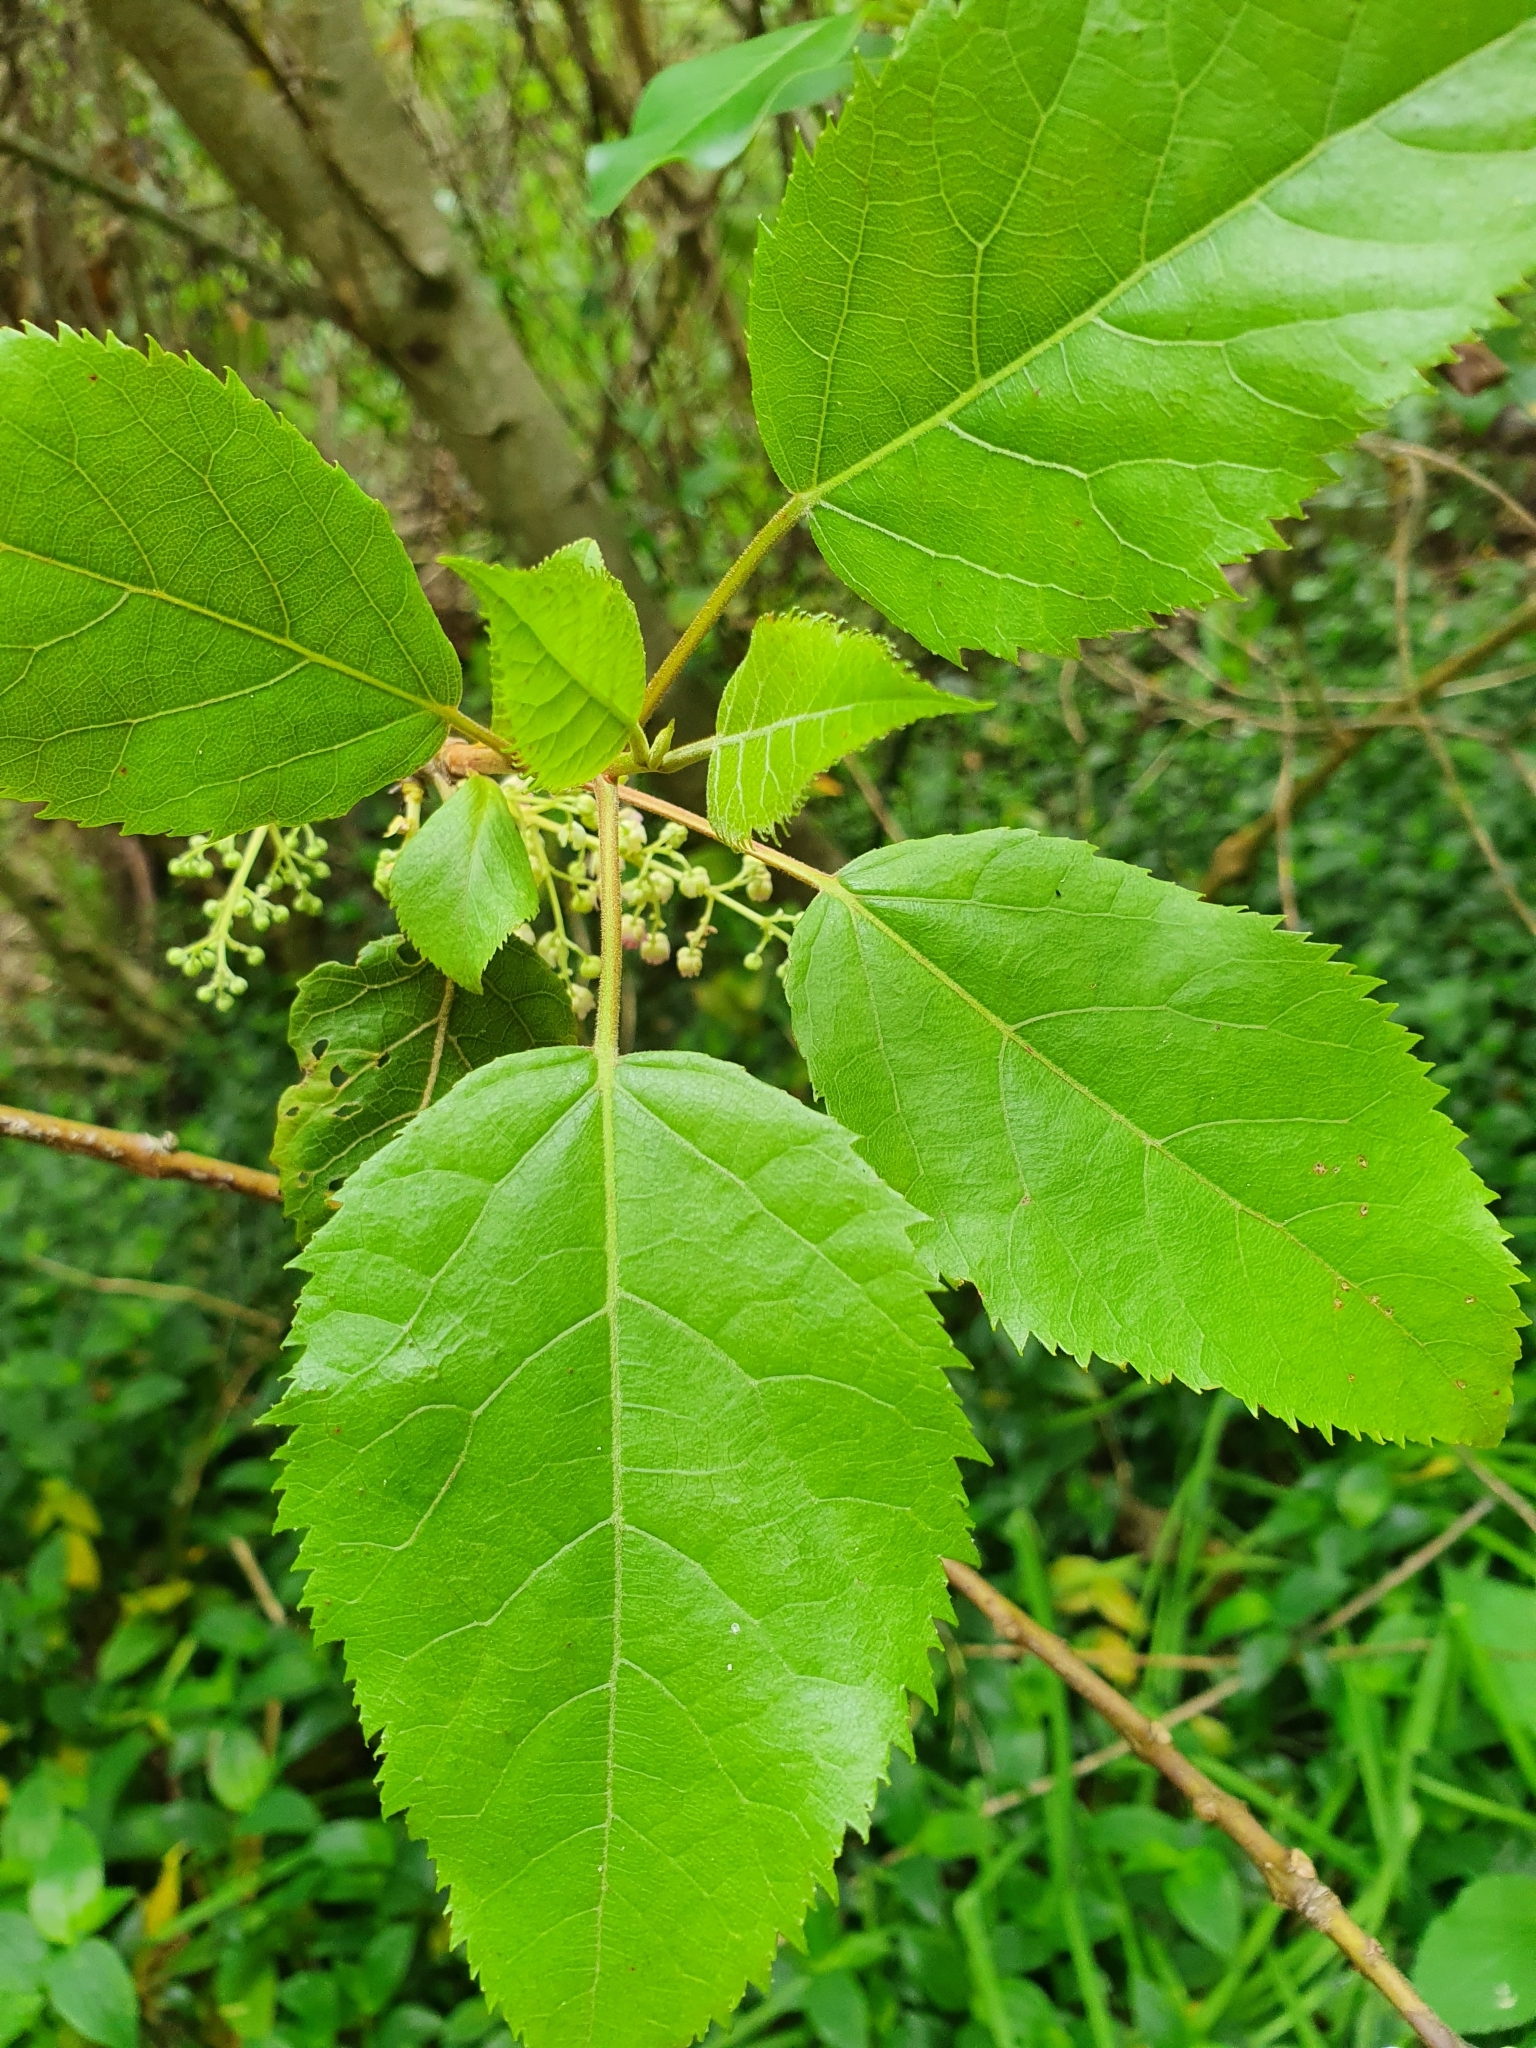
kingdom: Plantae
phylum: Tracheophyta
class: Magnoliopsida
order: Oxalidales
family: Elaeocarpaceae
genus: Aristotelia
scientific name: Aristotelia serrata
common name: New zealand wineberry
